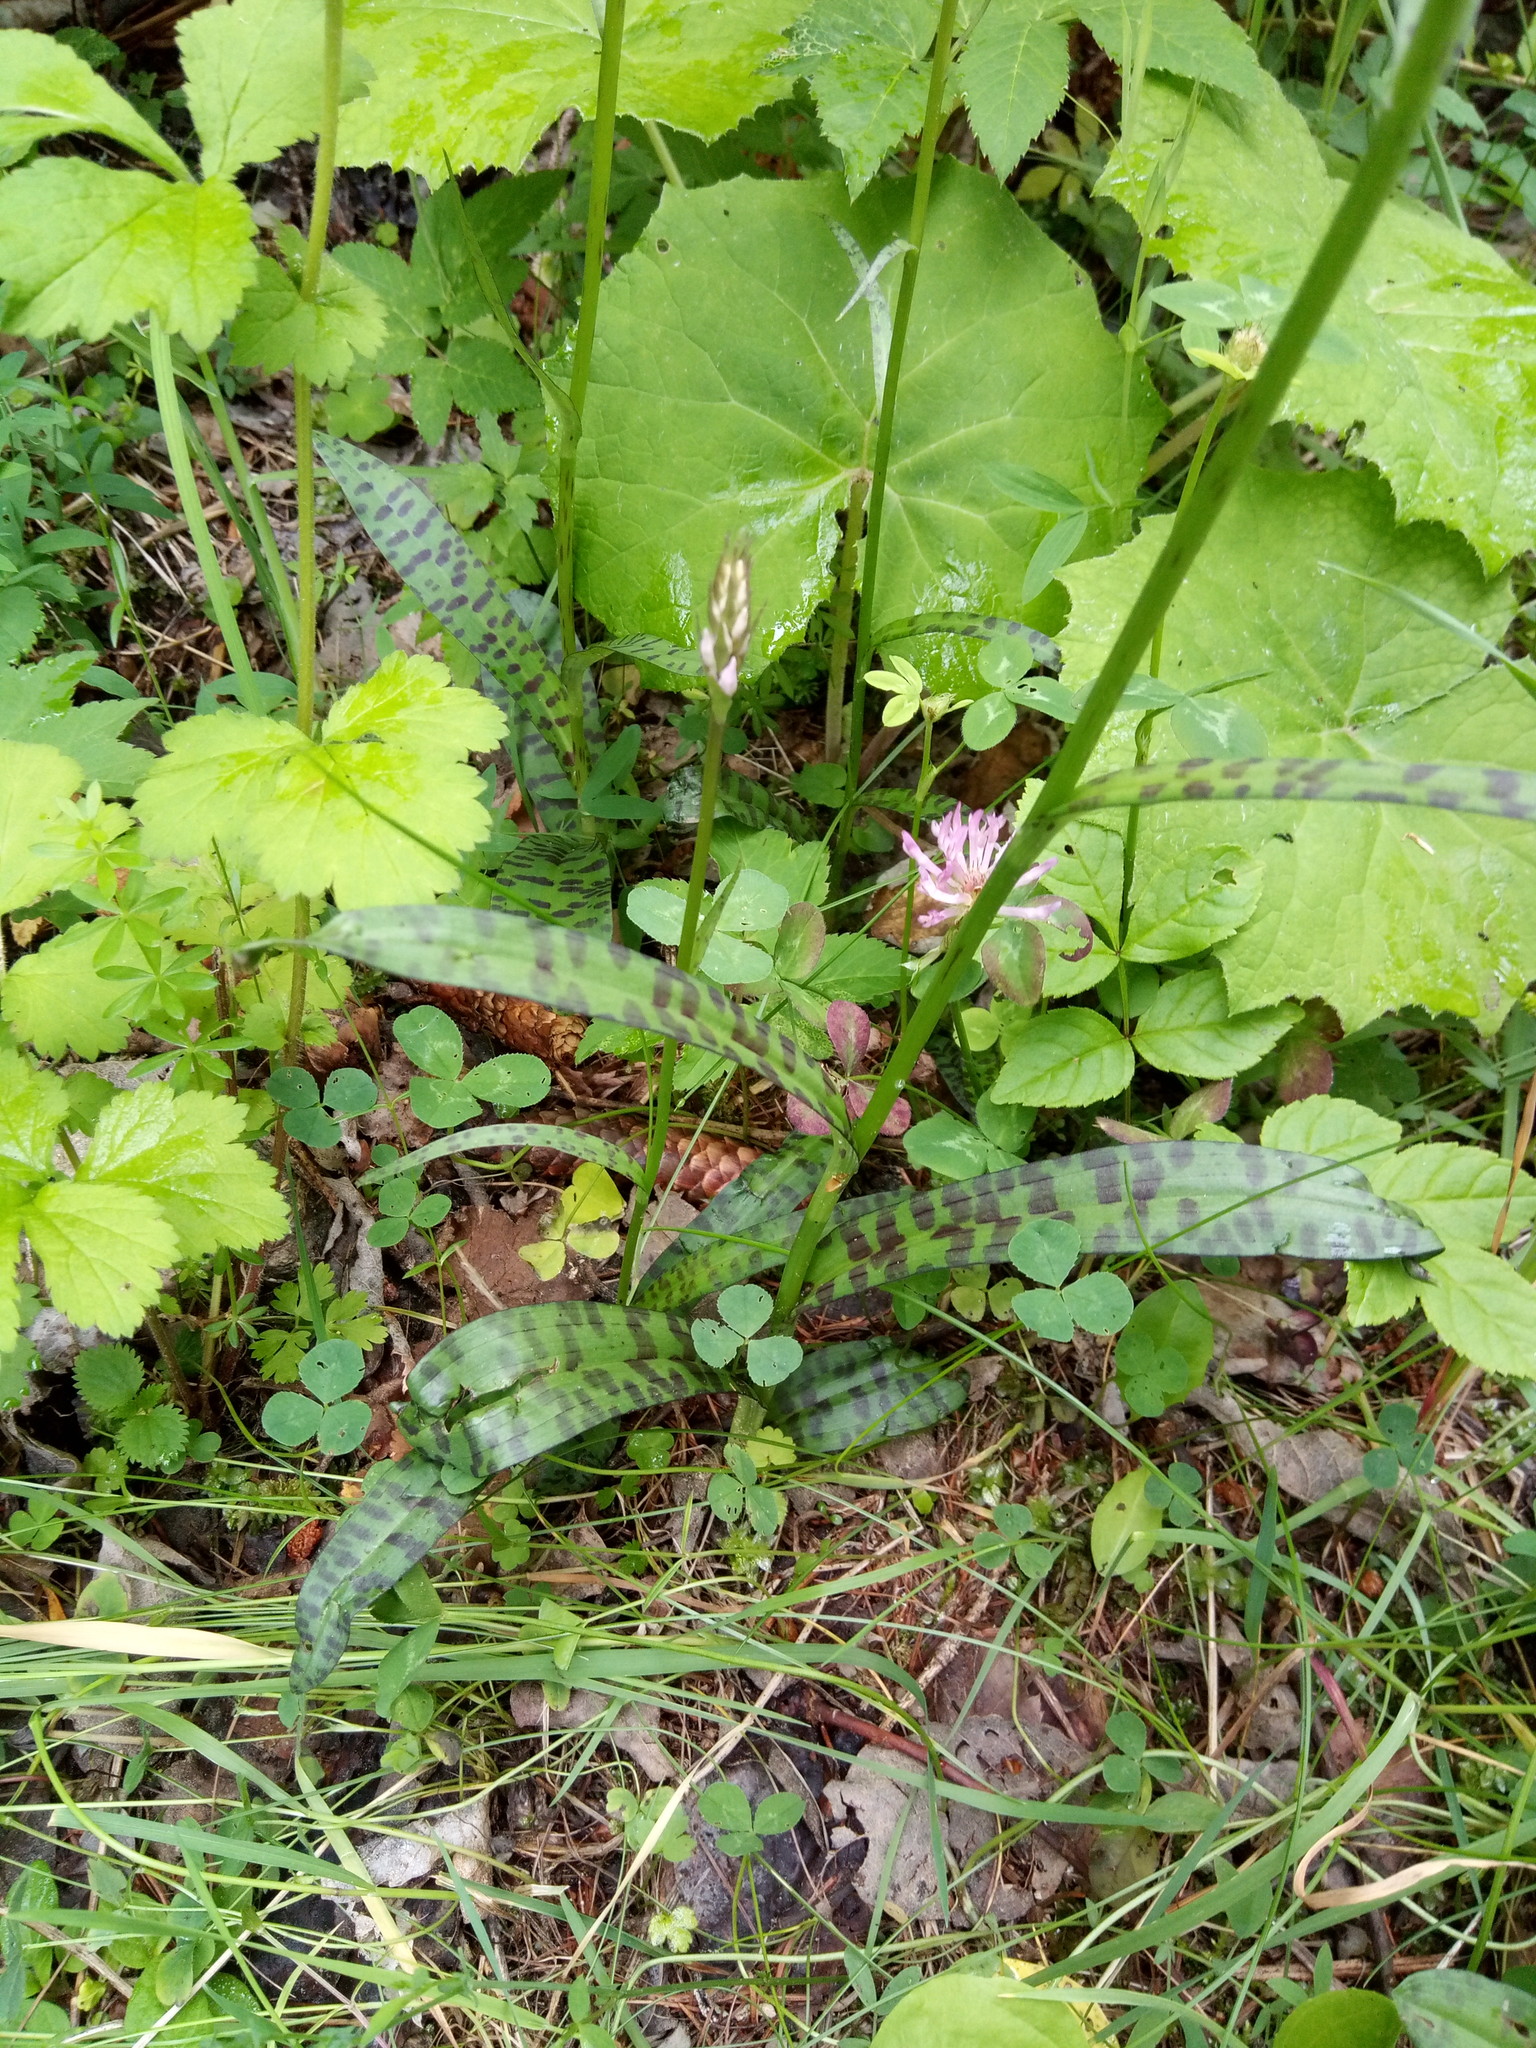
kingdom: Plantae
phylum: Tracheophyta
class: Liliopsida
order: Asparagales
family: Orchidaceae
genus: Dactylorhiza
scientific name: Dactylorhiza maculata
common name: Heath spotted-orchid
